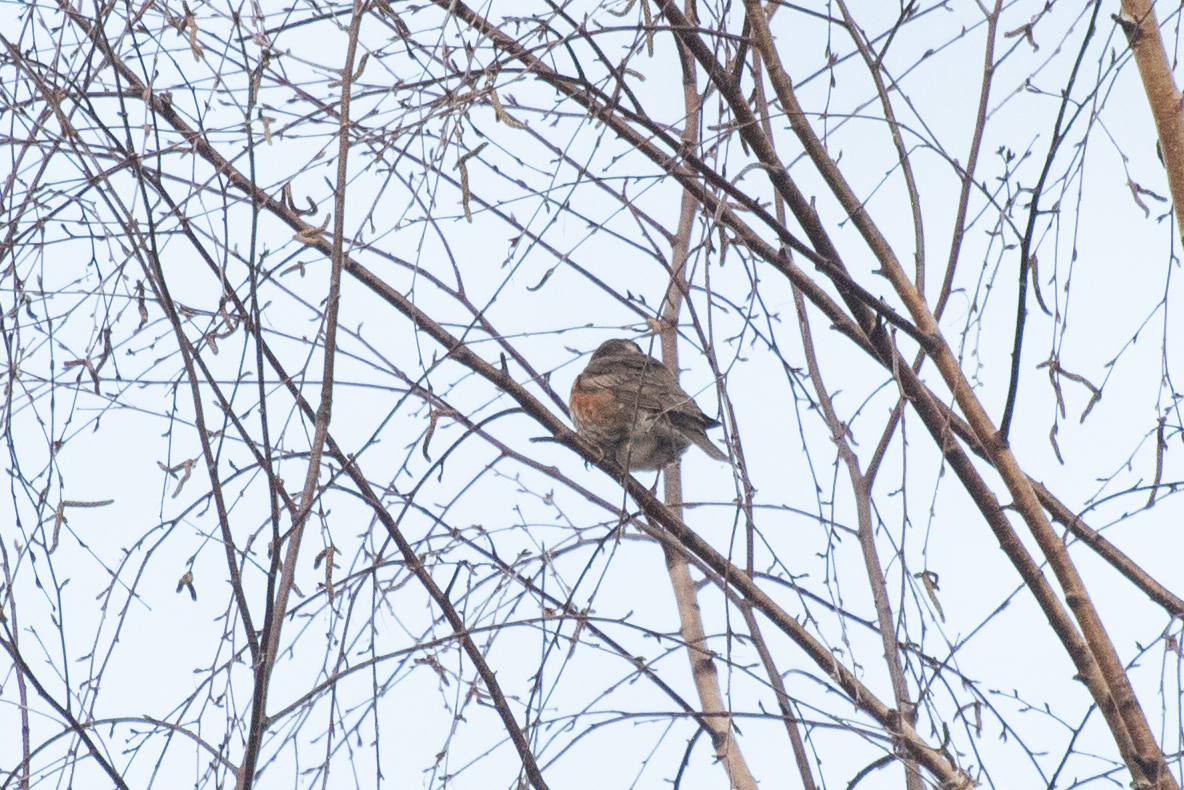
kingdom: Animalia
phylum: Chordata
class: Aves
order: Passeriformes
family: Turdidae
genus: Turdus
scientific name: Turdus iliacus
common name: Redwing
